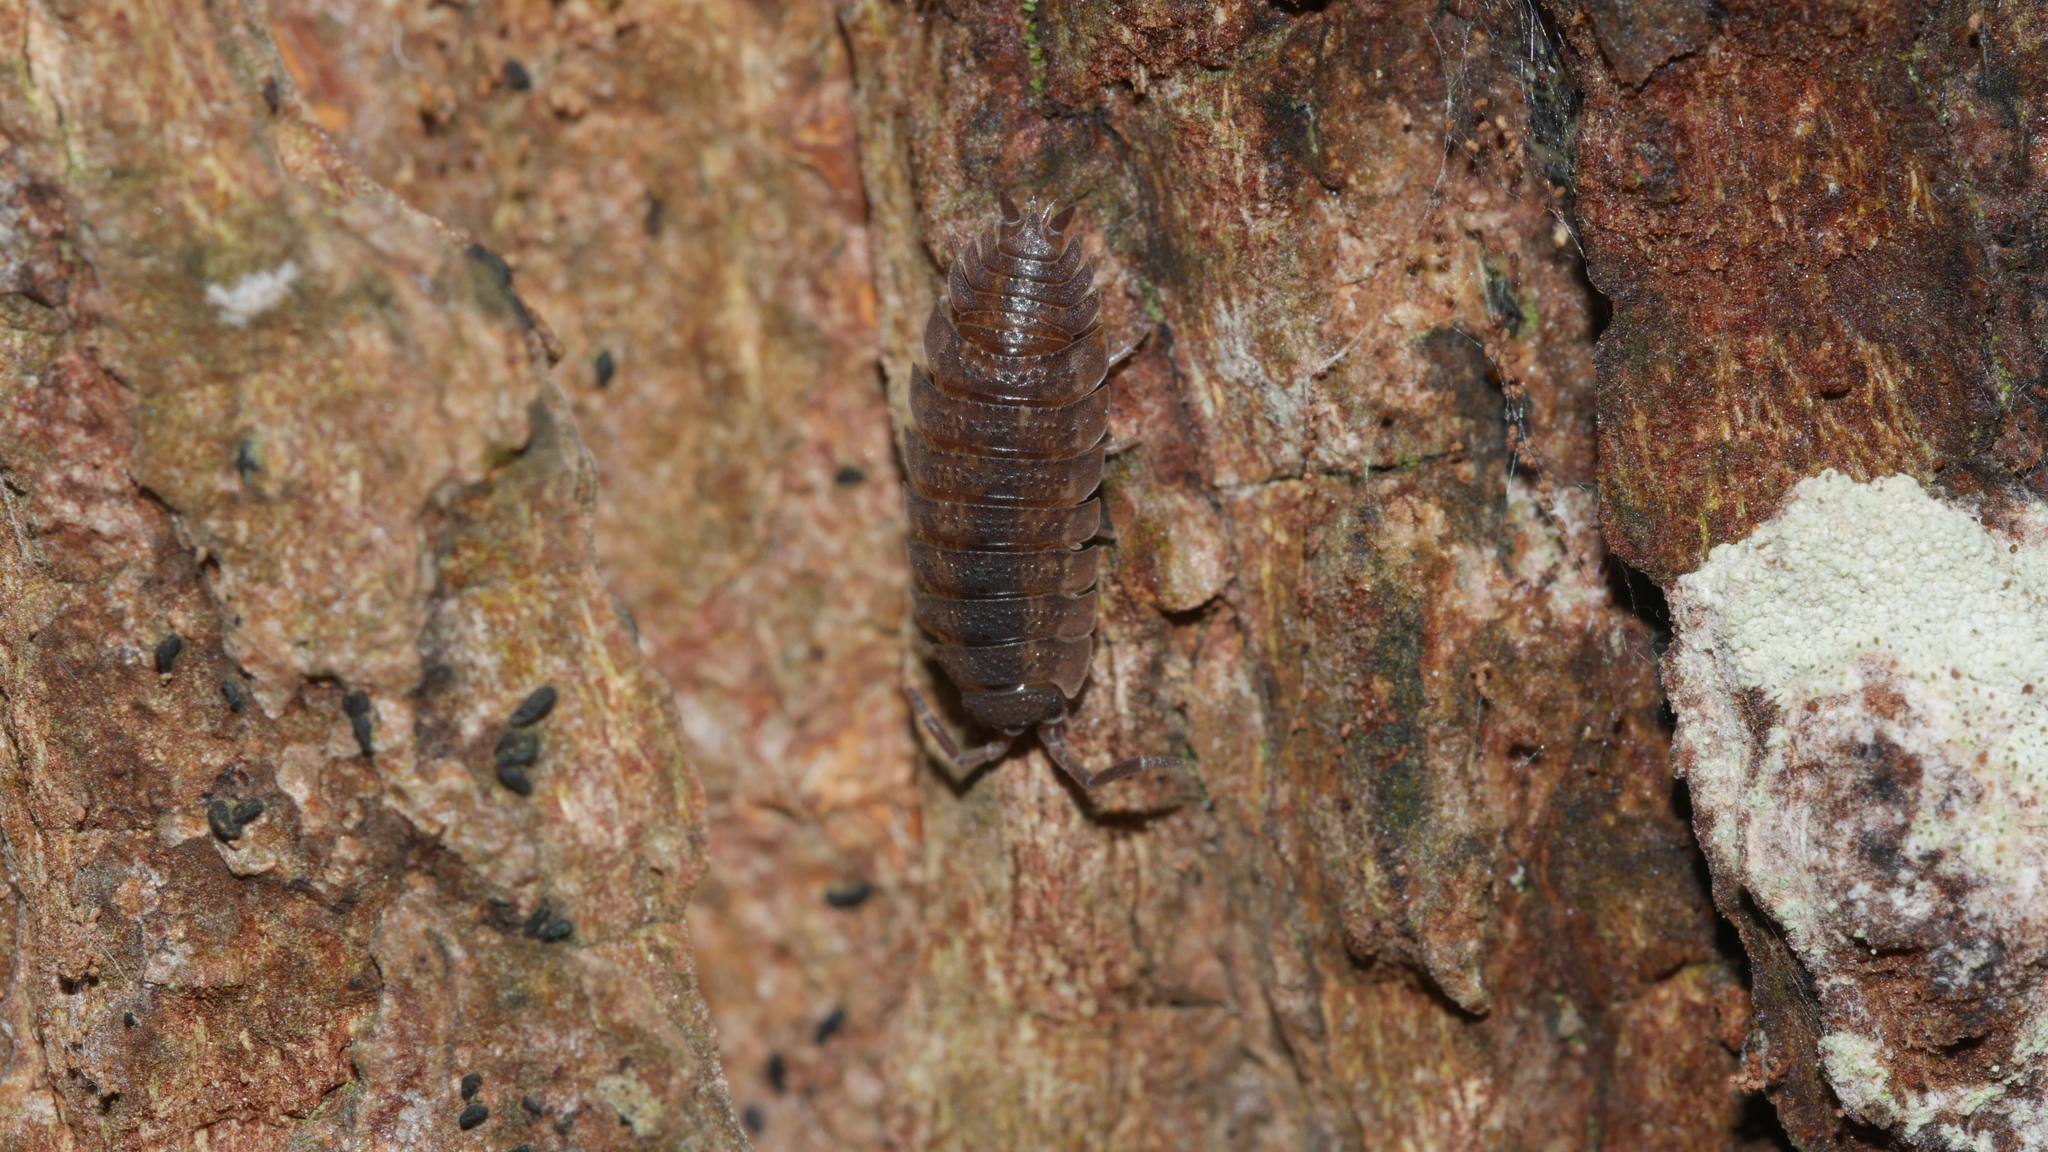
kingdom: Animalia
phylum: Arthropoda
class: Malacostraca
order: Isopoda
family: Porcellionidae
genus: Porcellio
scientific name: Porcellio scaber
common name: Common rough woodlouse
